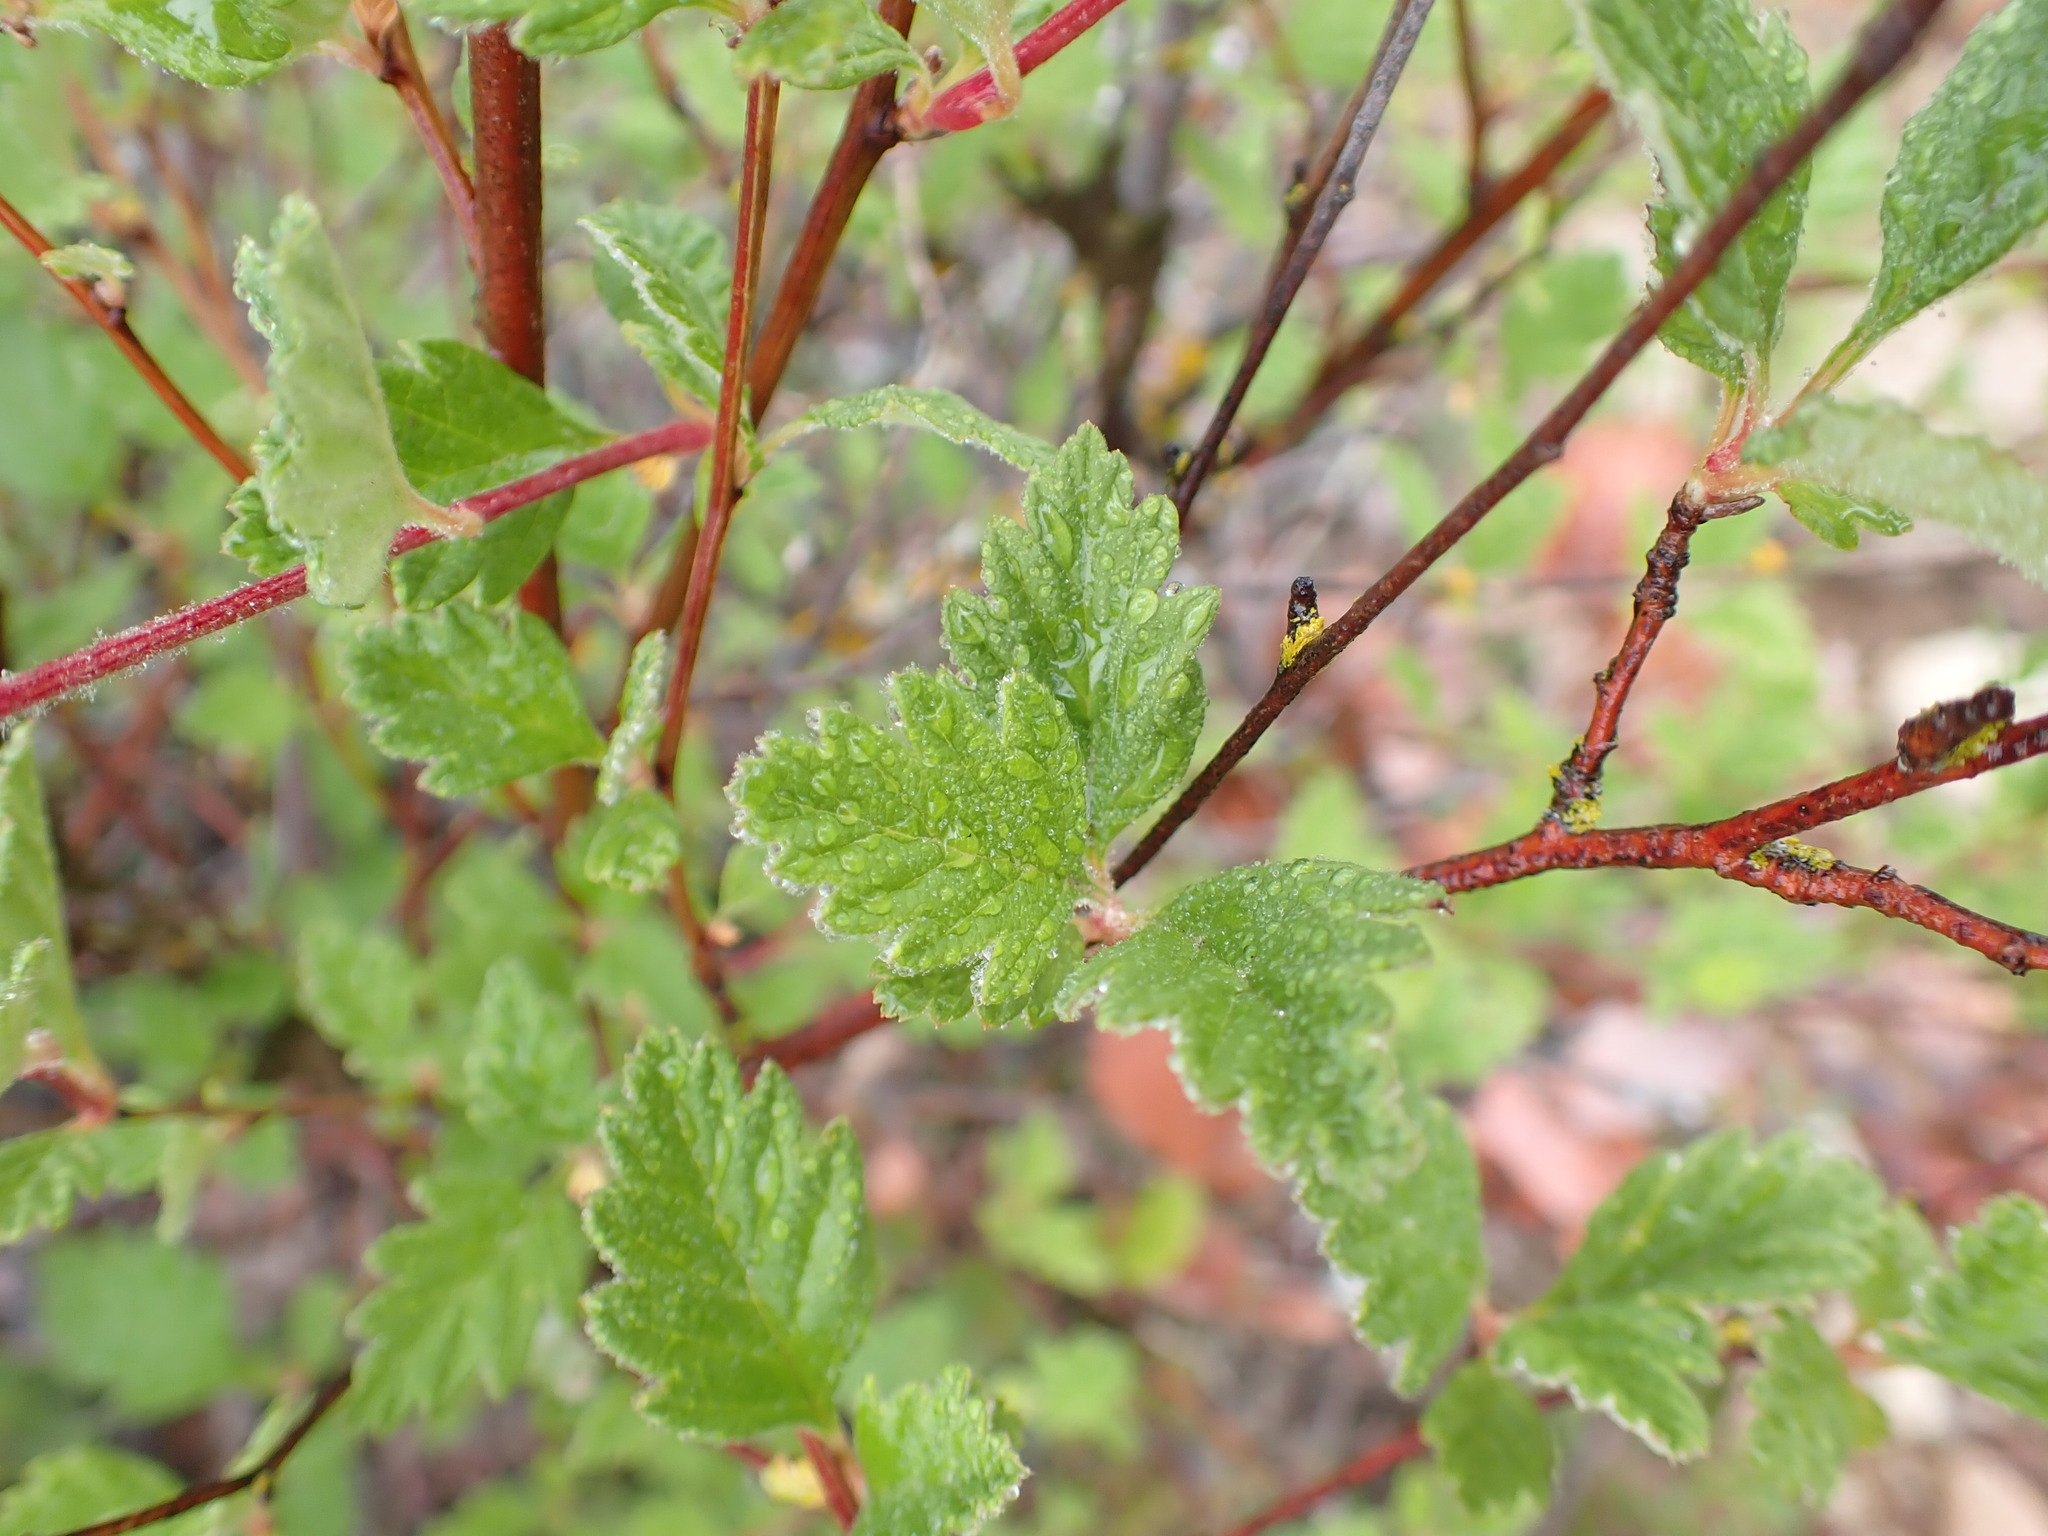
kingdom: Plantae
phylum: Tracheophyta
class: Magnoliopsida
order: Rosales
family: Rosaceae
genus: Holodiscus
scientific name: Holodiscus discolor
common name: Oceanspray
